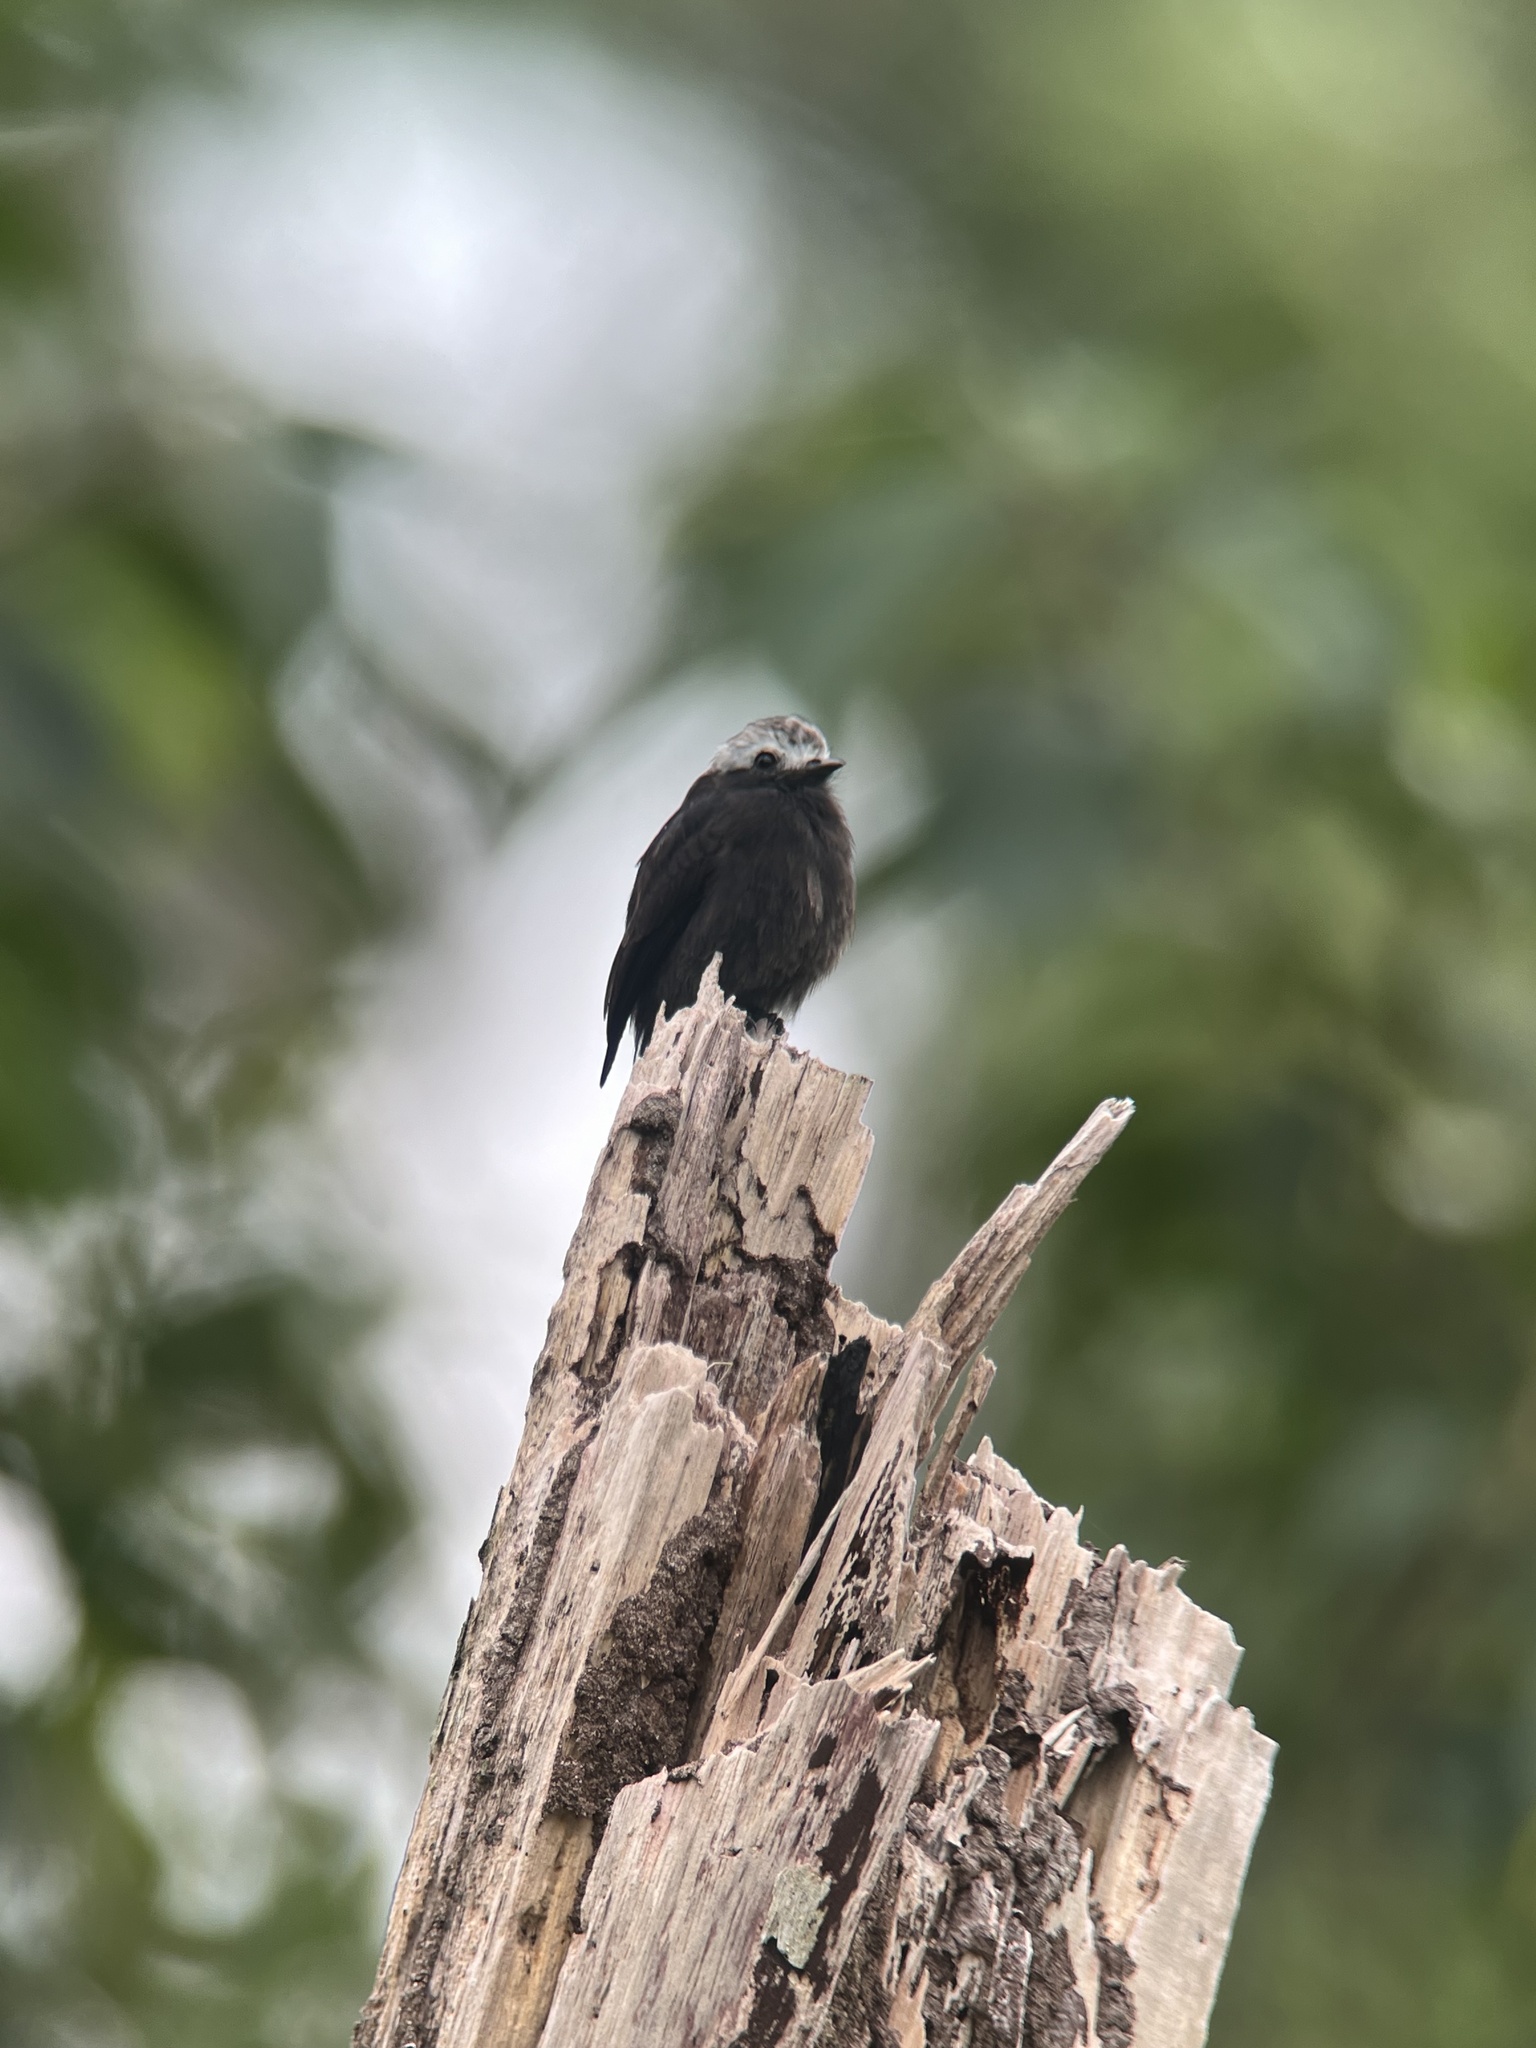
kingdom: Animalia
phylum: Chordata
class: Aves
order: Passeriformes
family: Tyrannidae
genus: Colonia
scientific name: Colonia colonus
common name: Long-tailed tyrant
